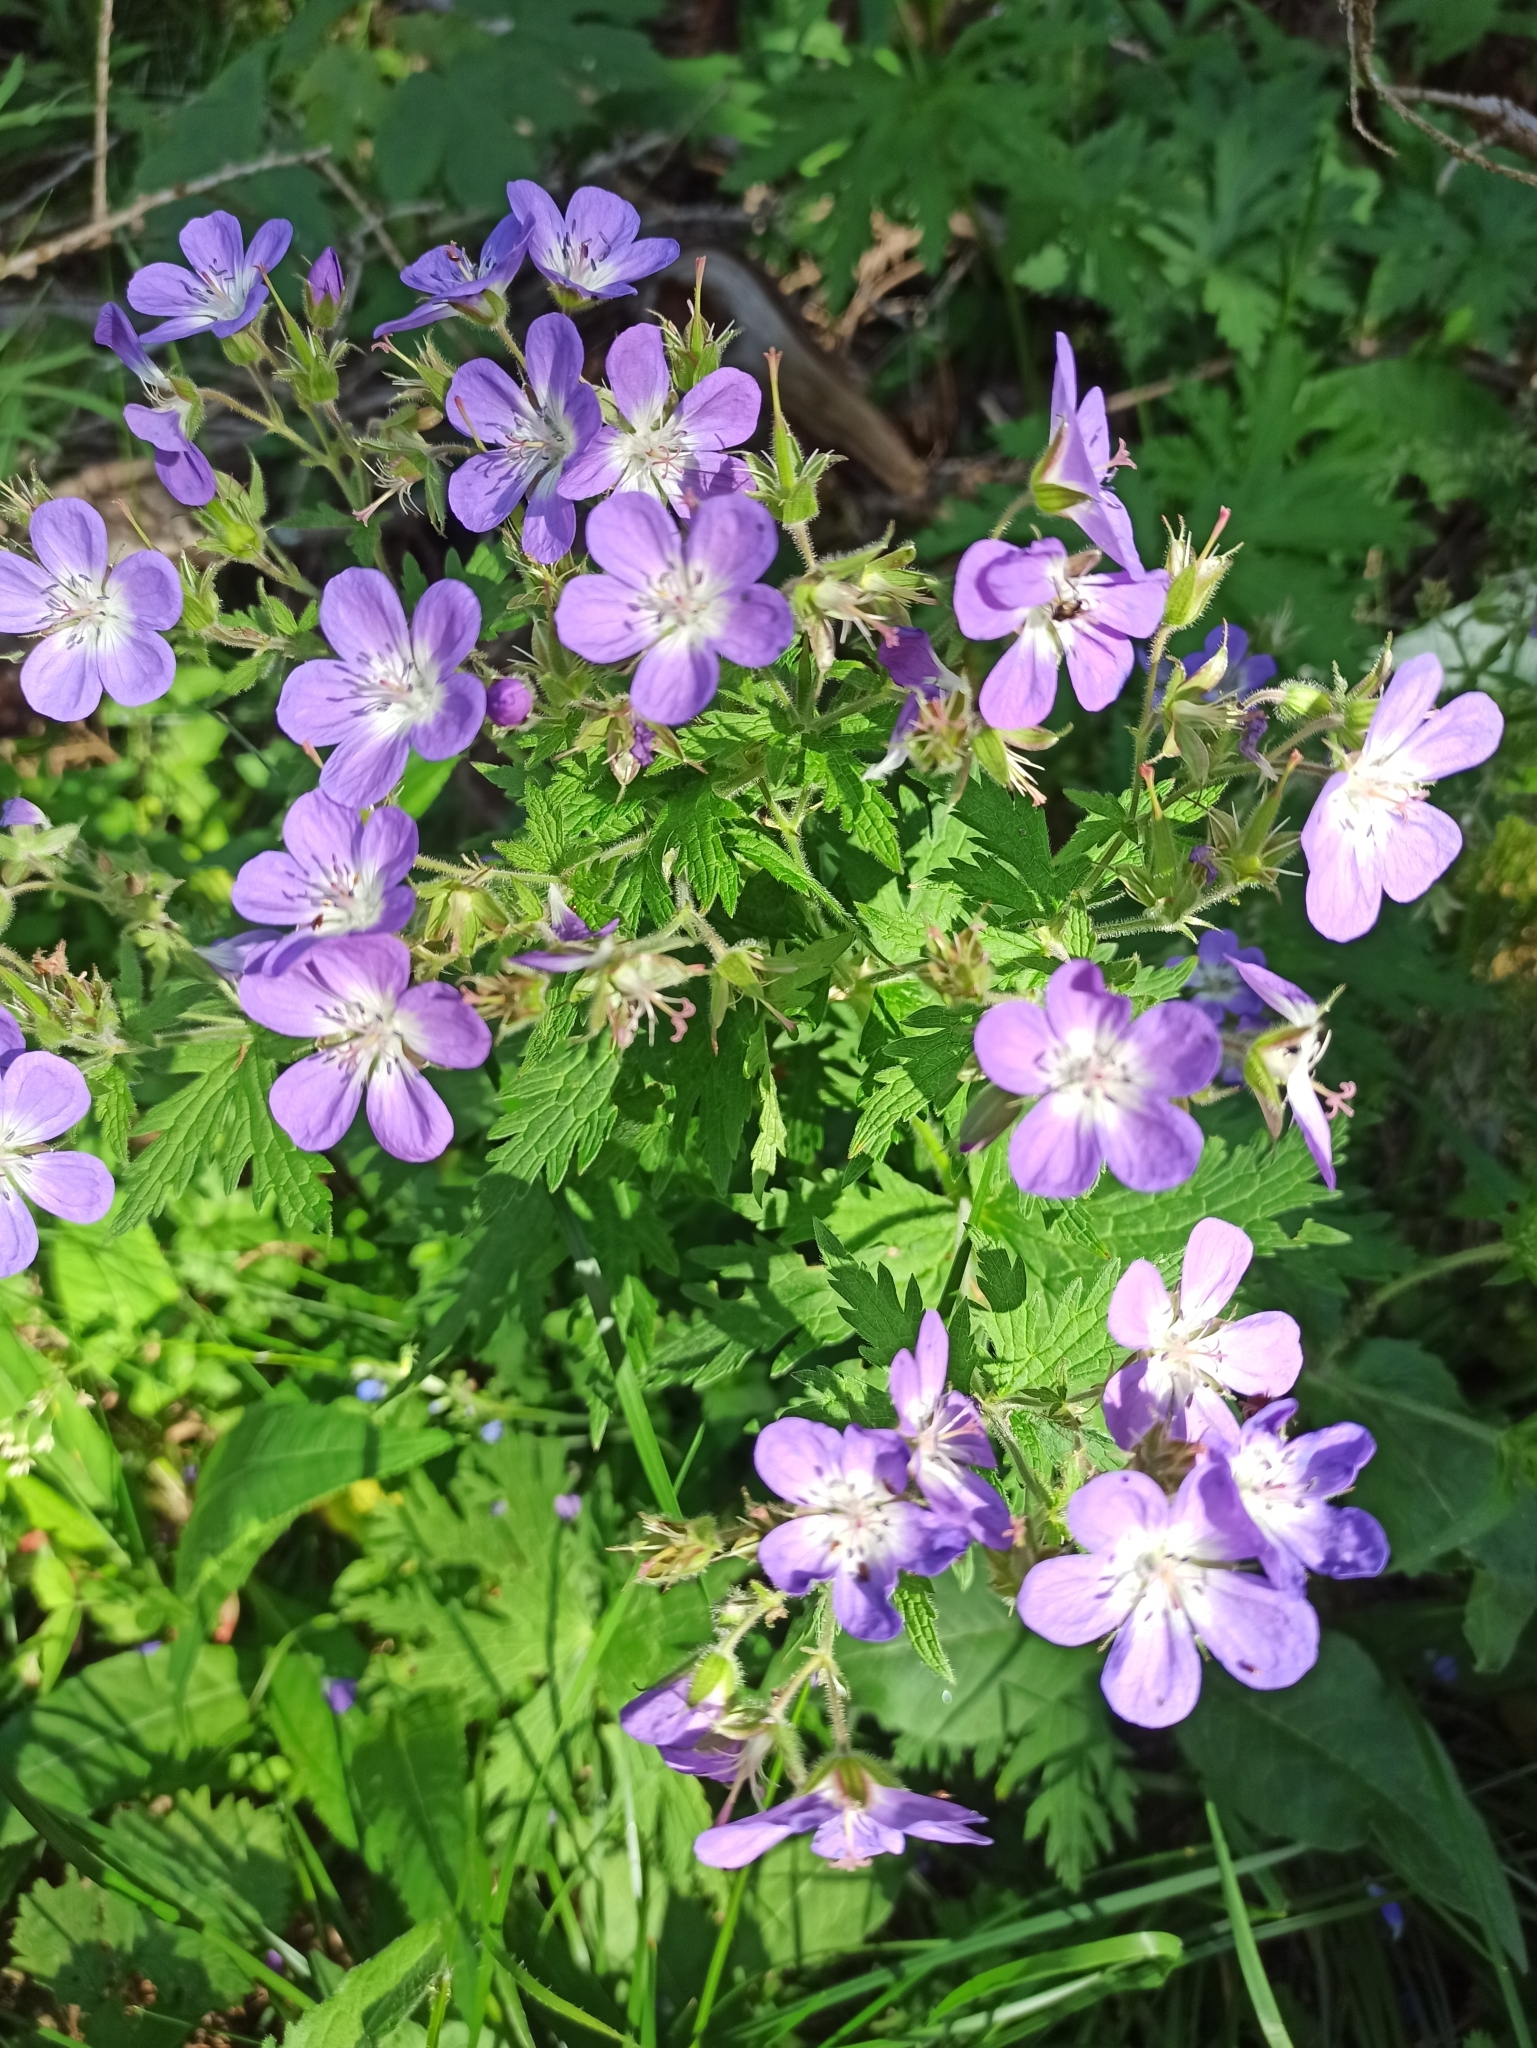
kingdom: Plantae
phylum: Tracheophyta
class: Magnoliopsida
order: Geraniales
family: Geraniaceae
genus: Geranium
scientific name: Geranium sylvaticum
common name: Wood crane's-bill
